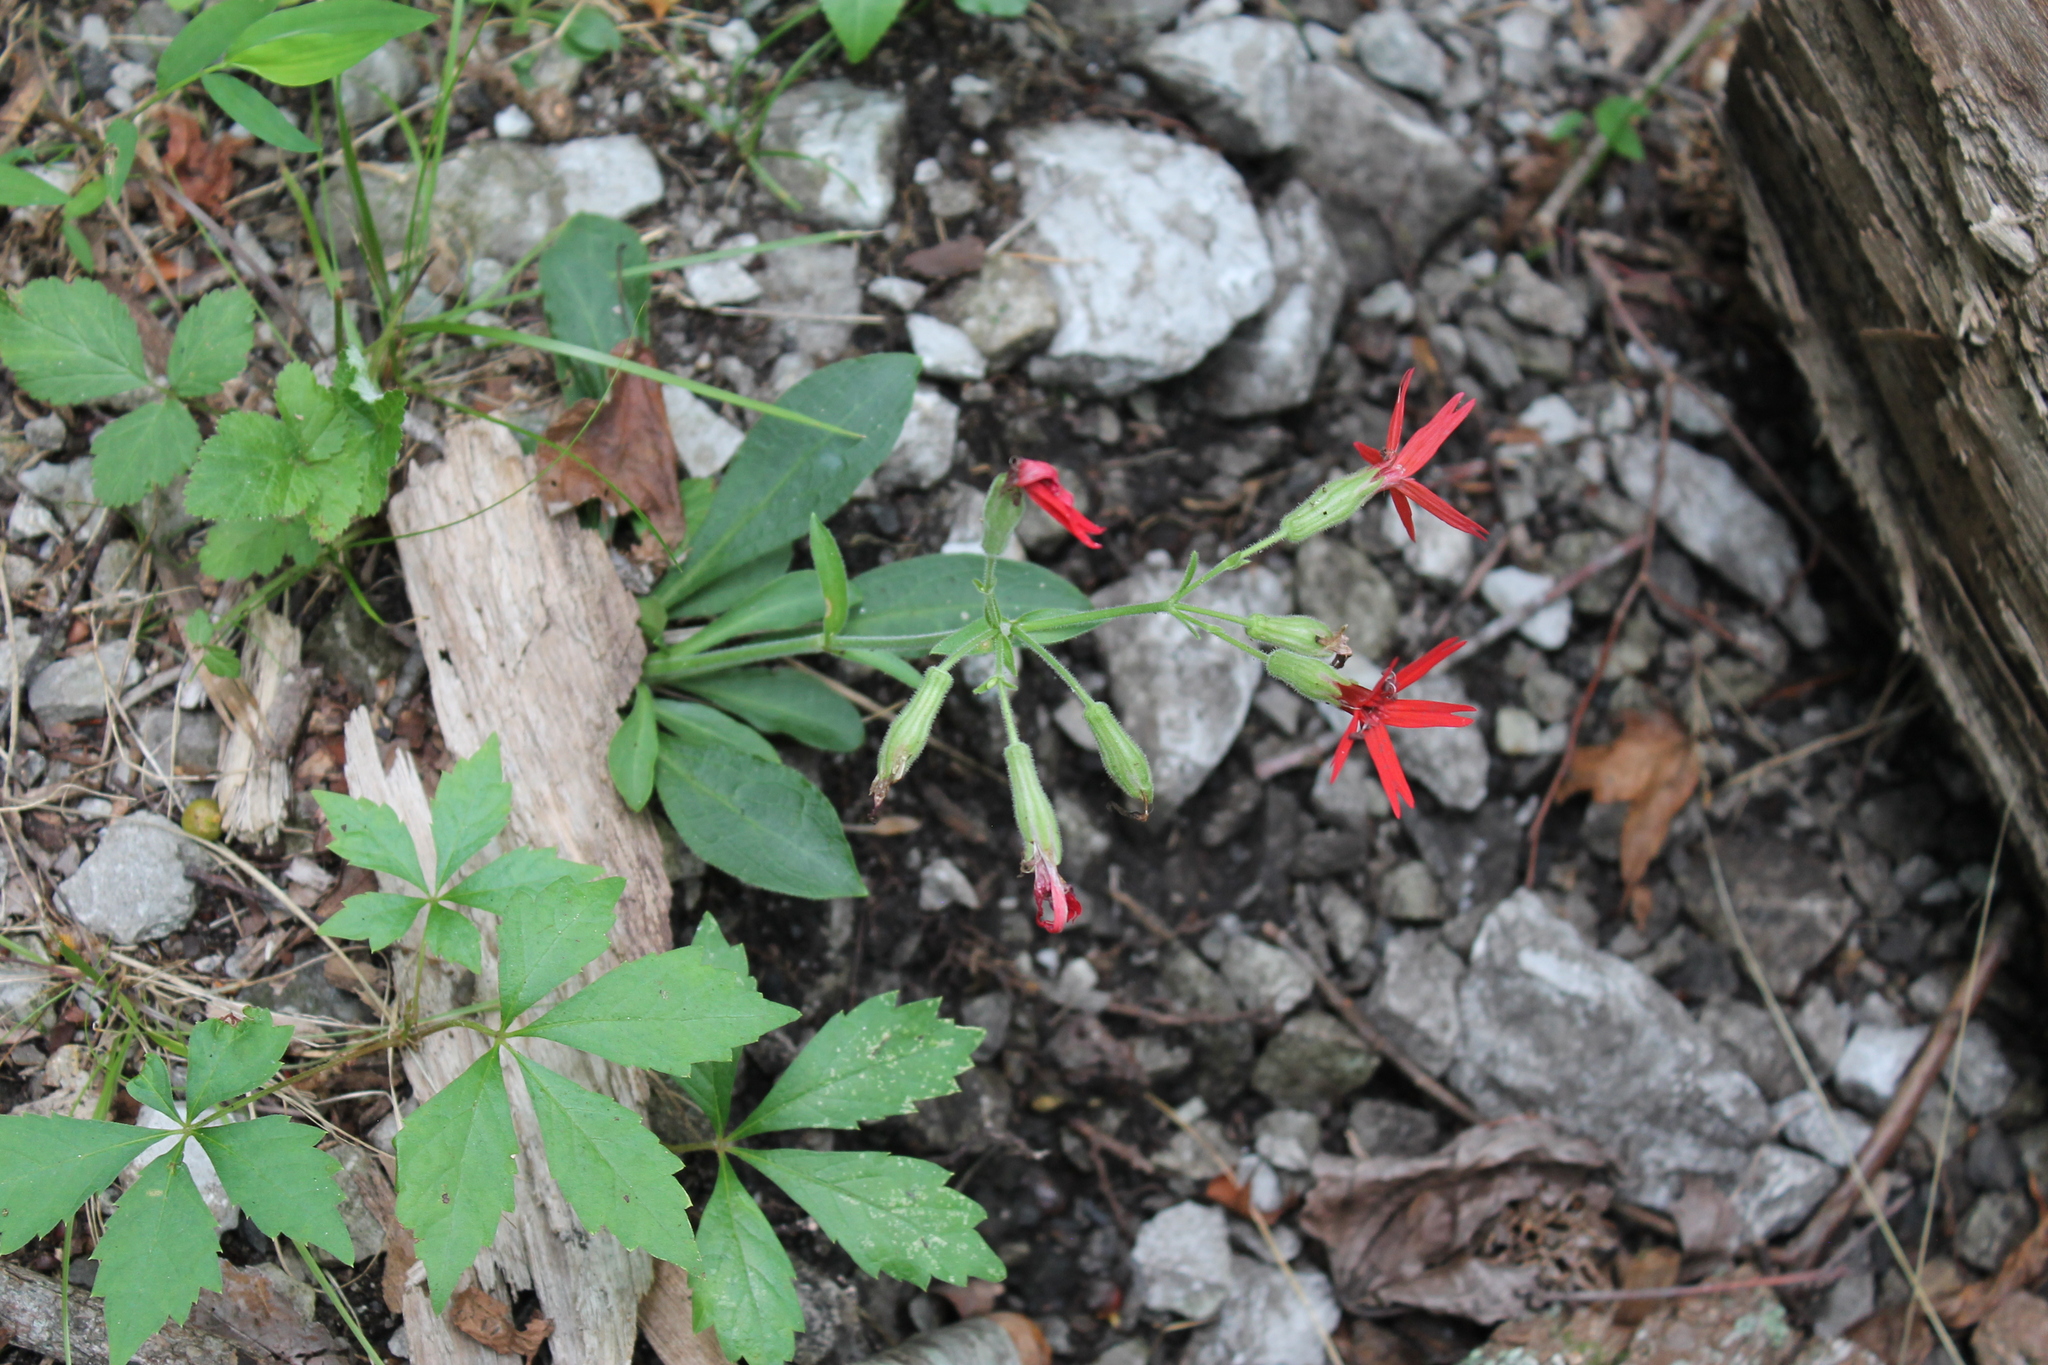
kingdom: Plantae
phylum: Tracheophyta
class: Magnoliopsida
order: Caryophyllales
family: Caryophyllaceae
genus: Silene
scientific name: Silene virginica
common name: Fire-pink
